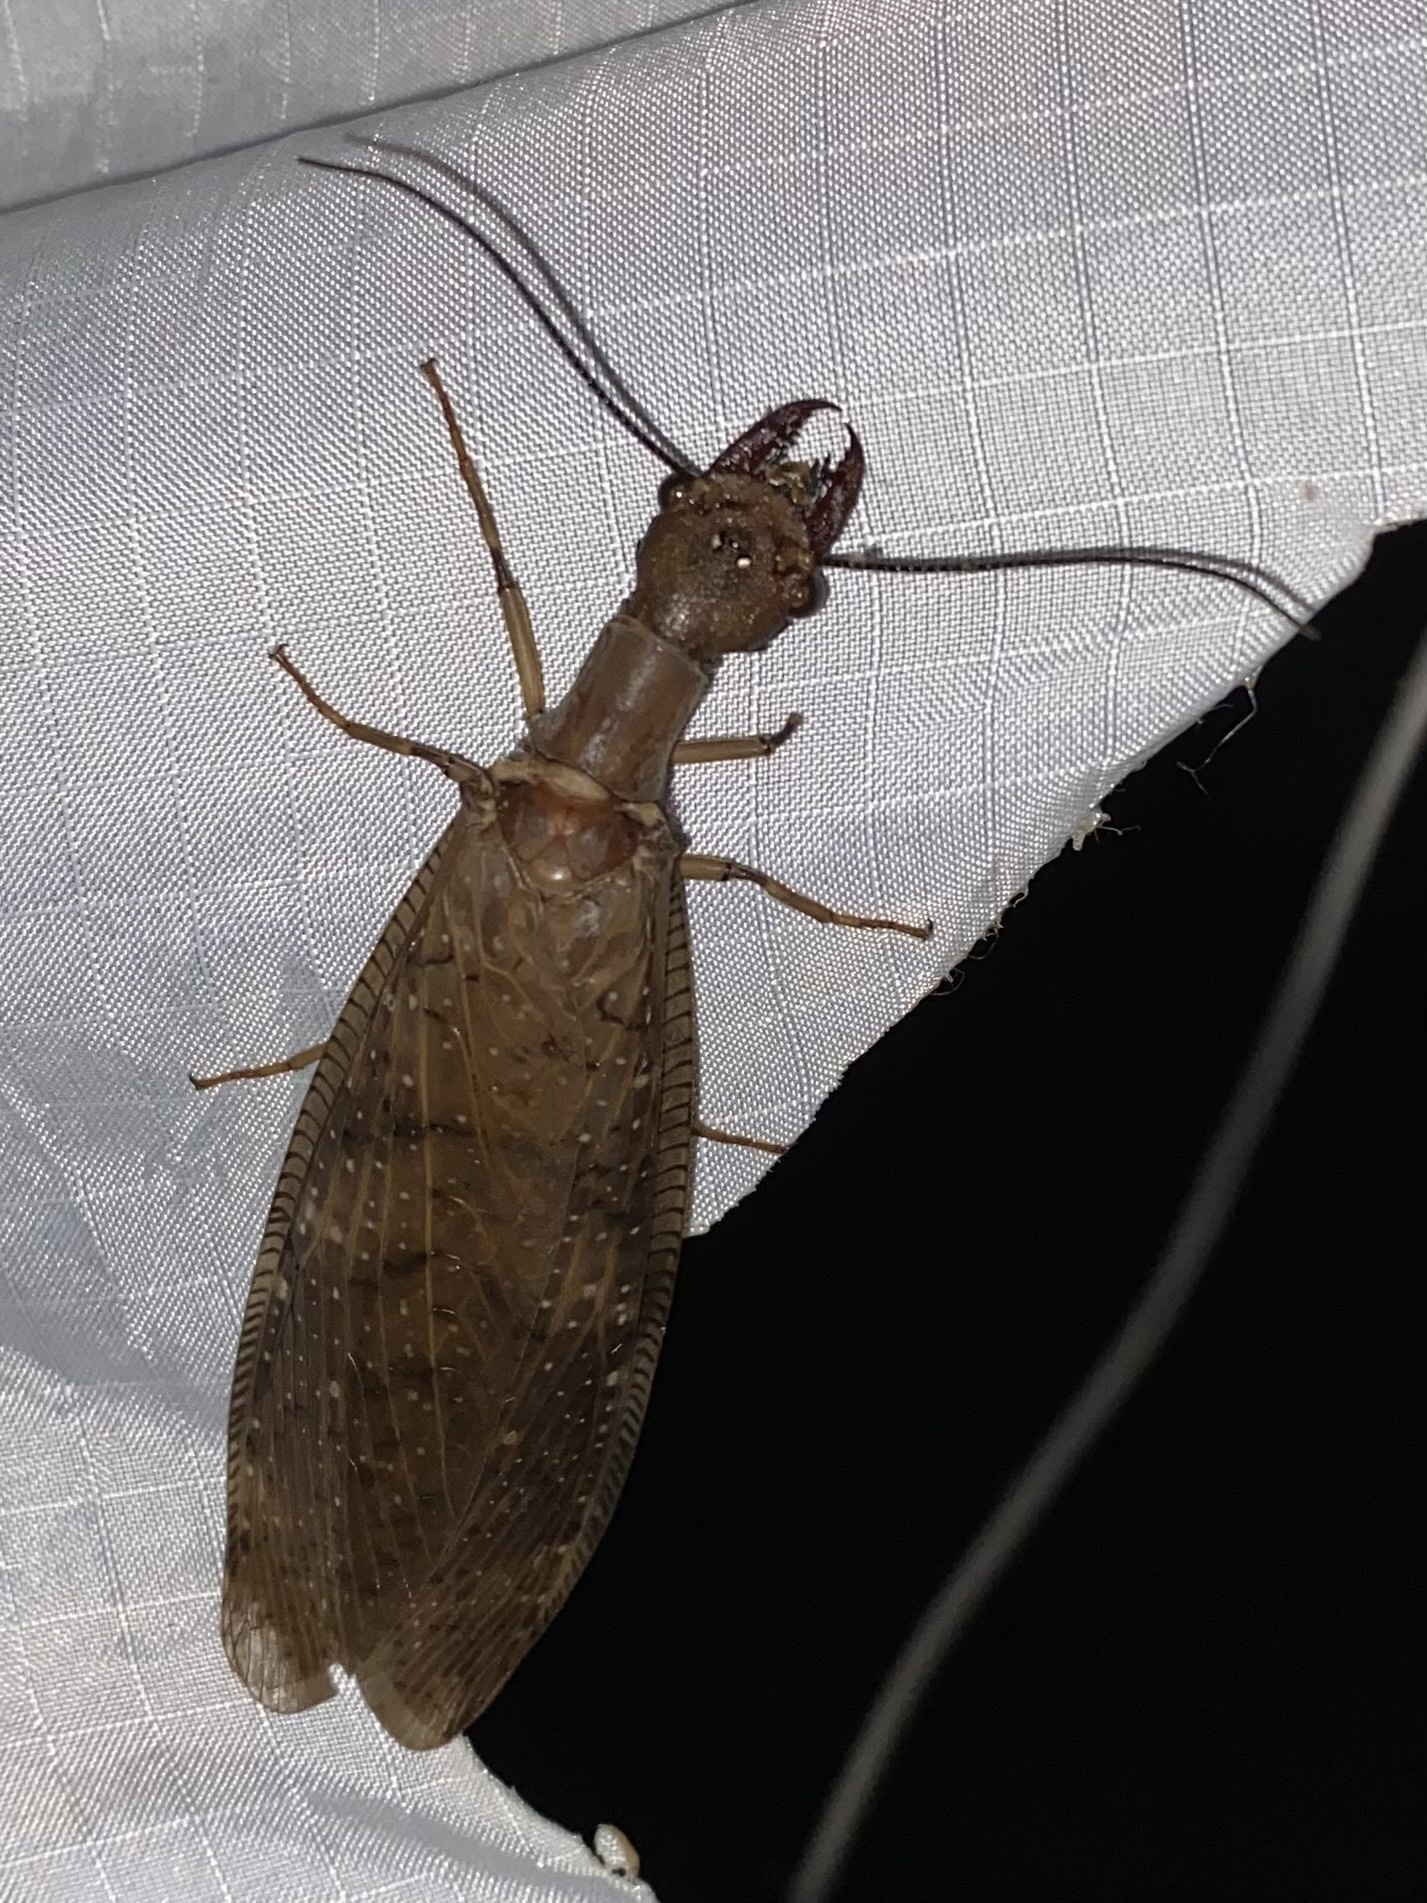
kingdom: Animalia
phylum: Arthropoda
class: Insecta
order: Megaloptera
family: Corydalidae
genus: Corydalus
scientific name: Corydalus peruvianus
